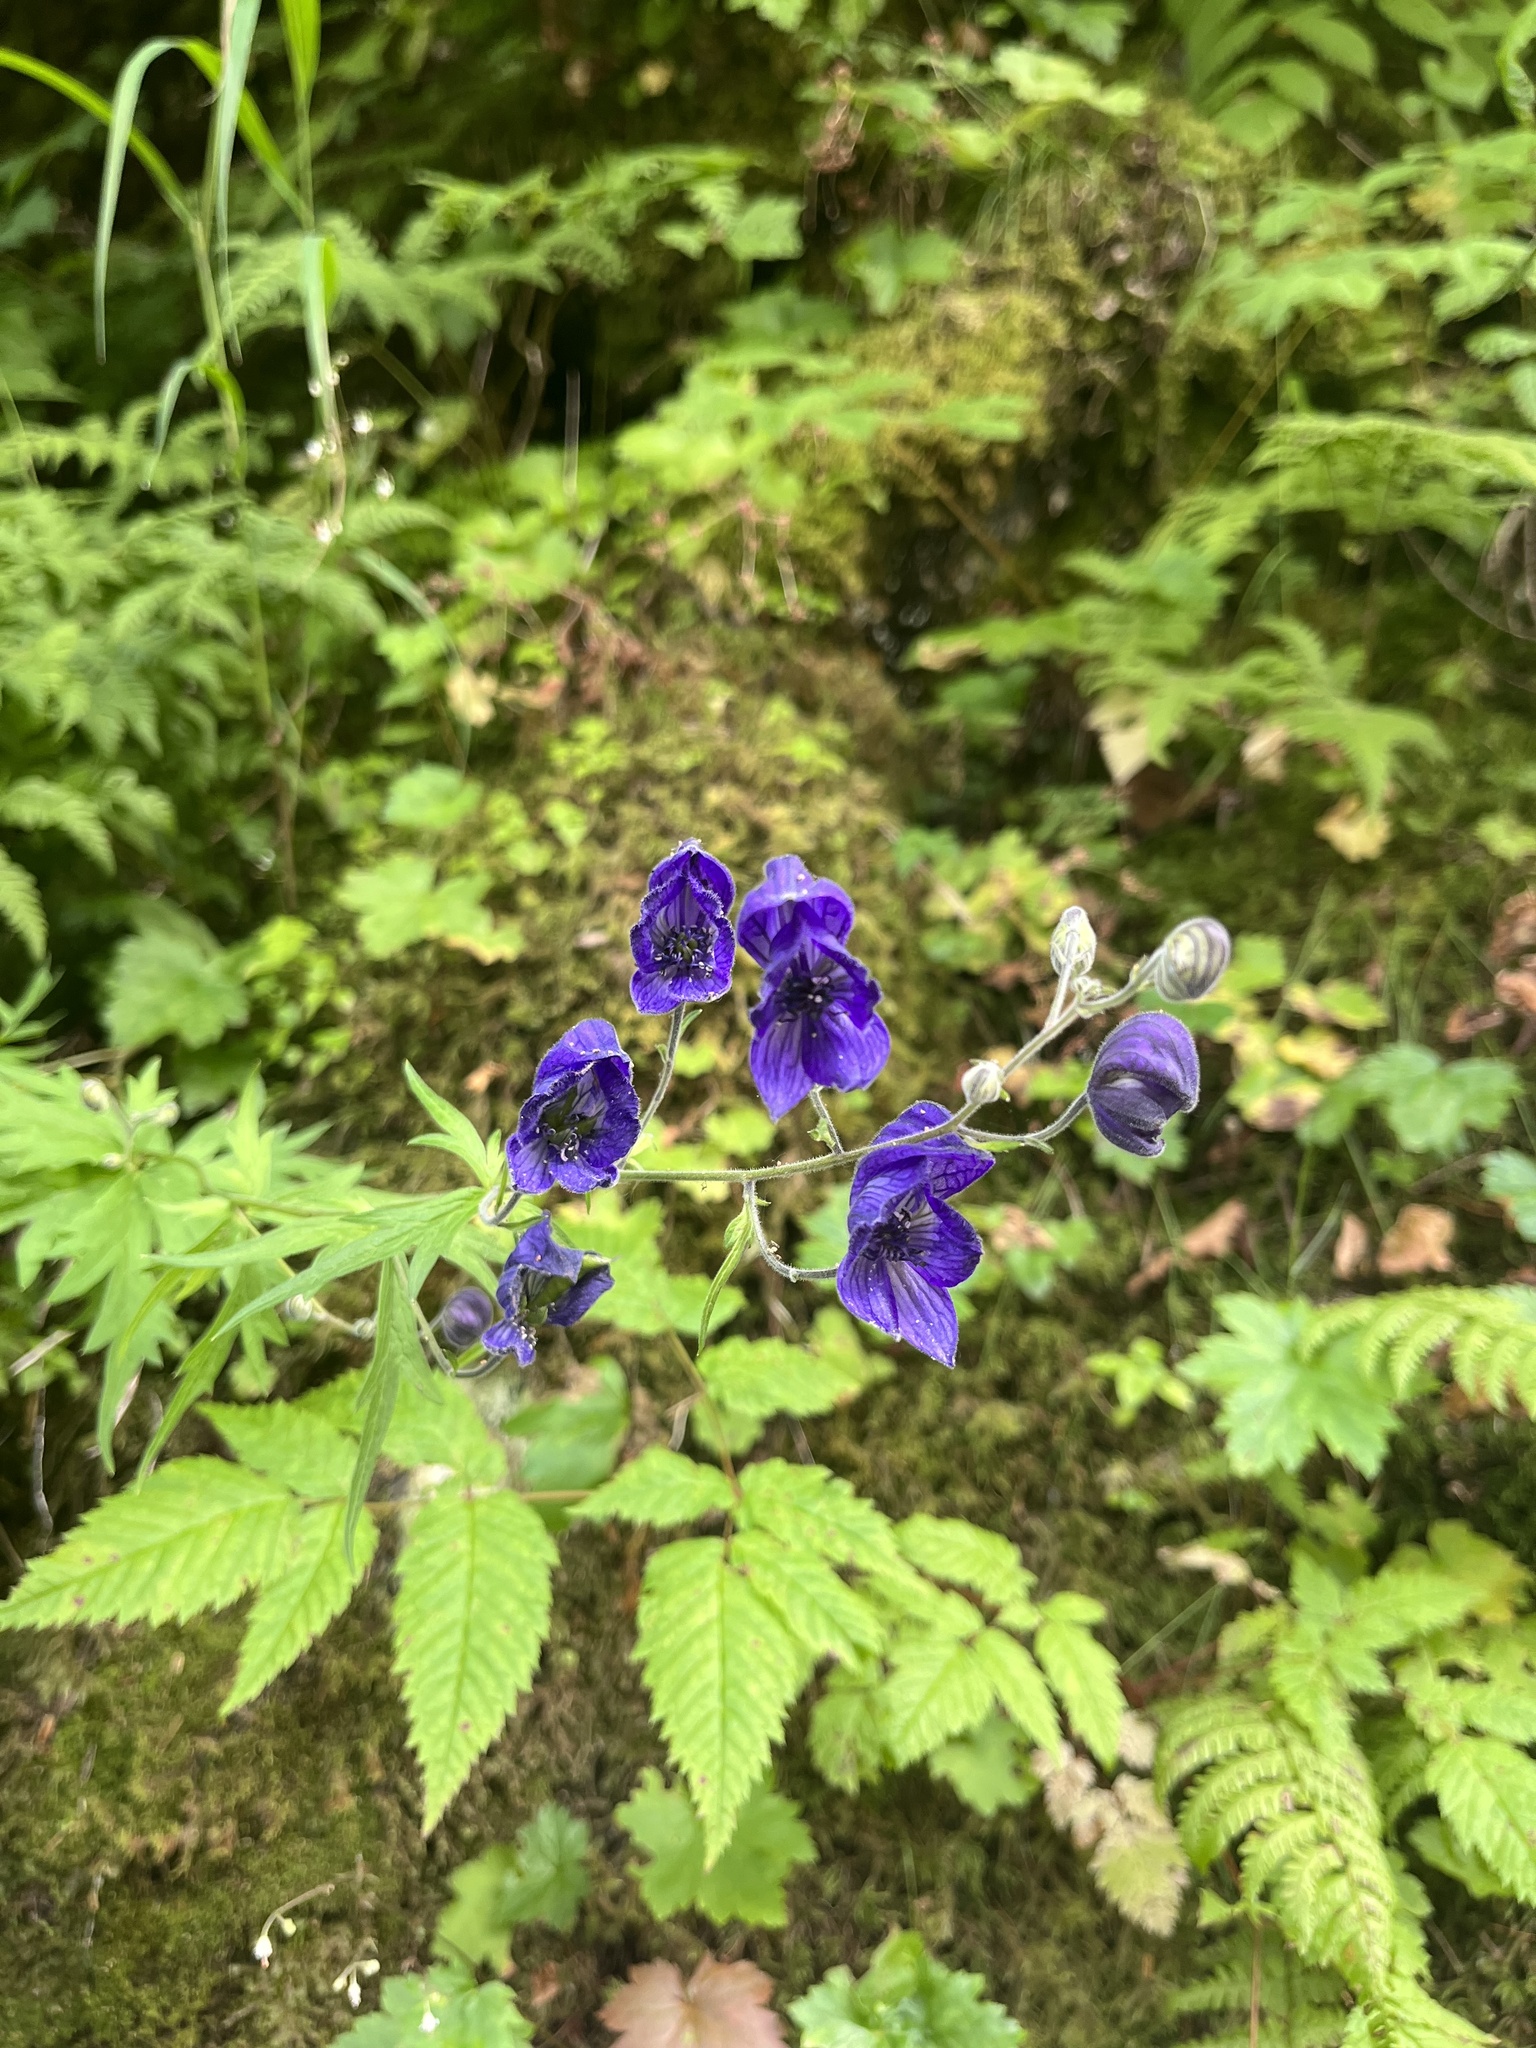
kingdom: Plantae
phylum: Tracheophyta
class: Magnoliopsida
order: Ranunculales
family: Ranunculaceae
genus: Aconitum
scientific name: Aconitum delphiniifolium
